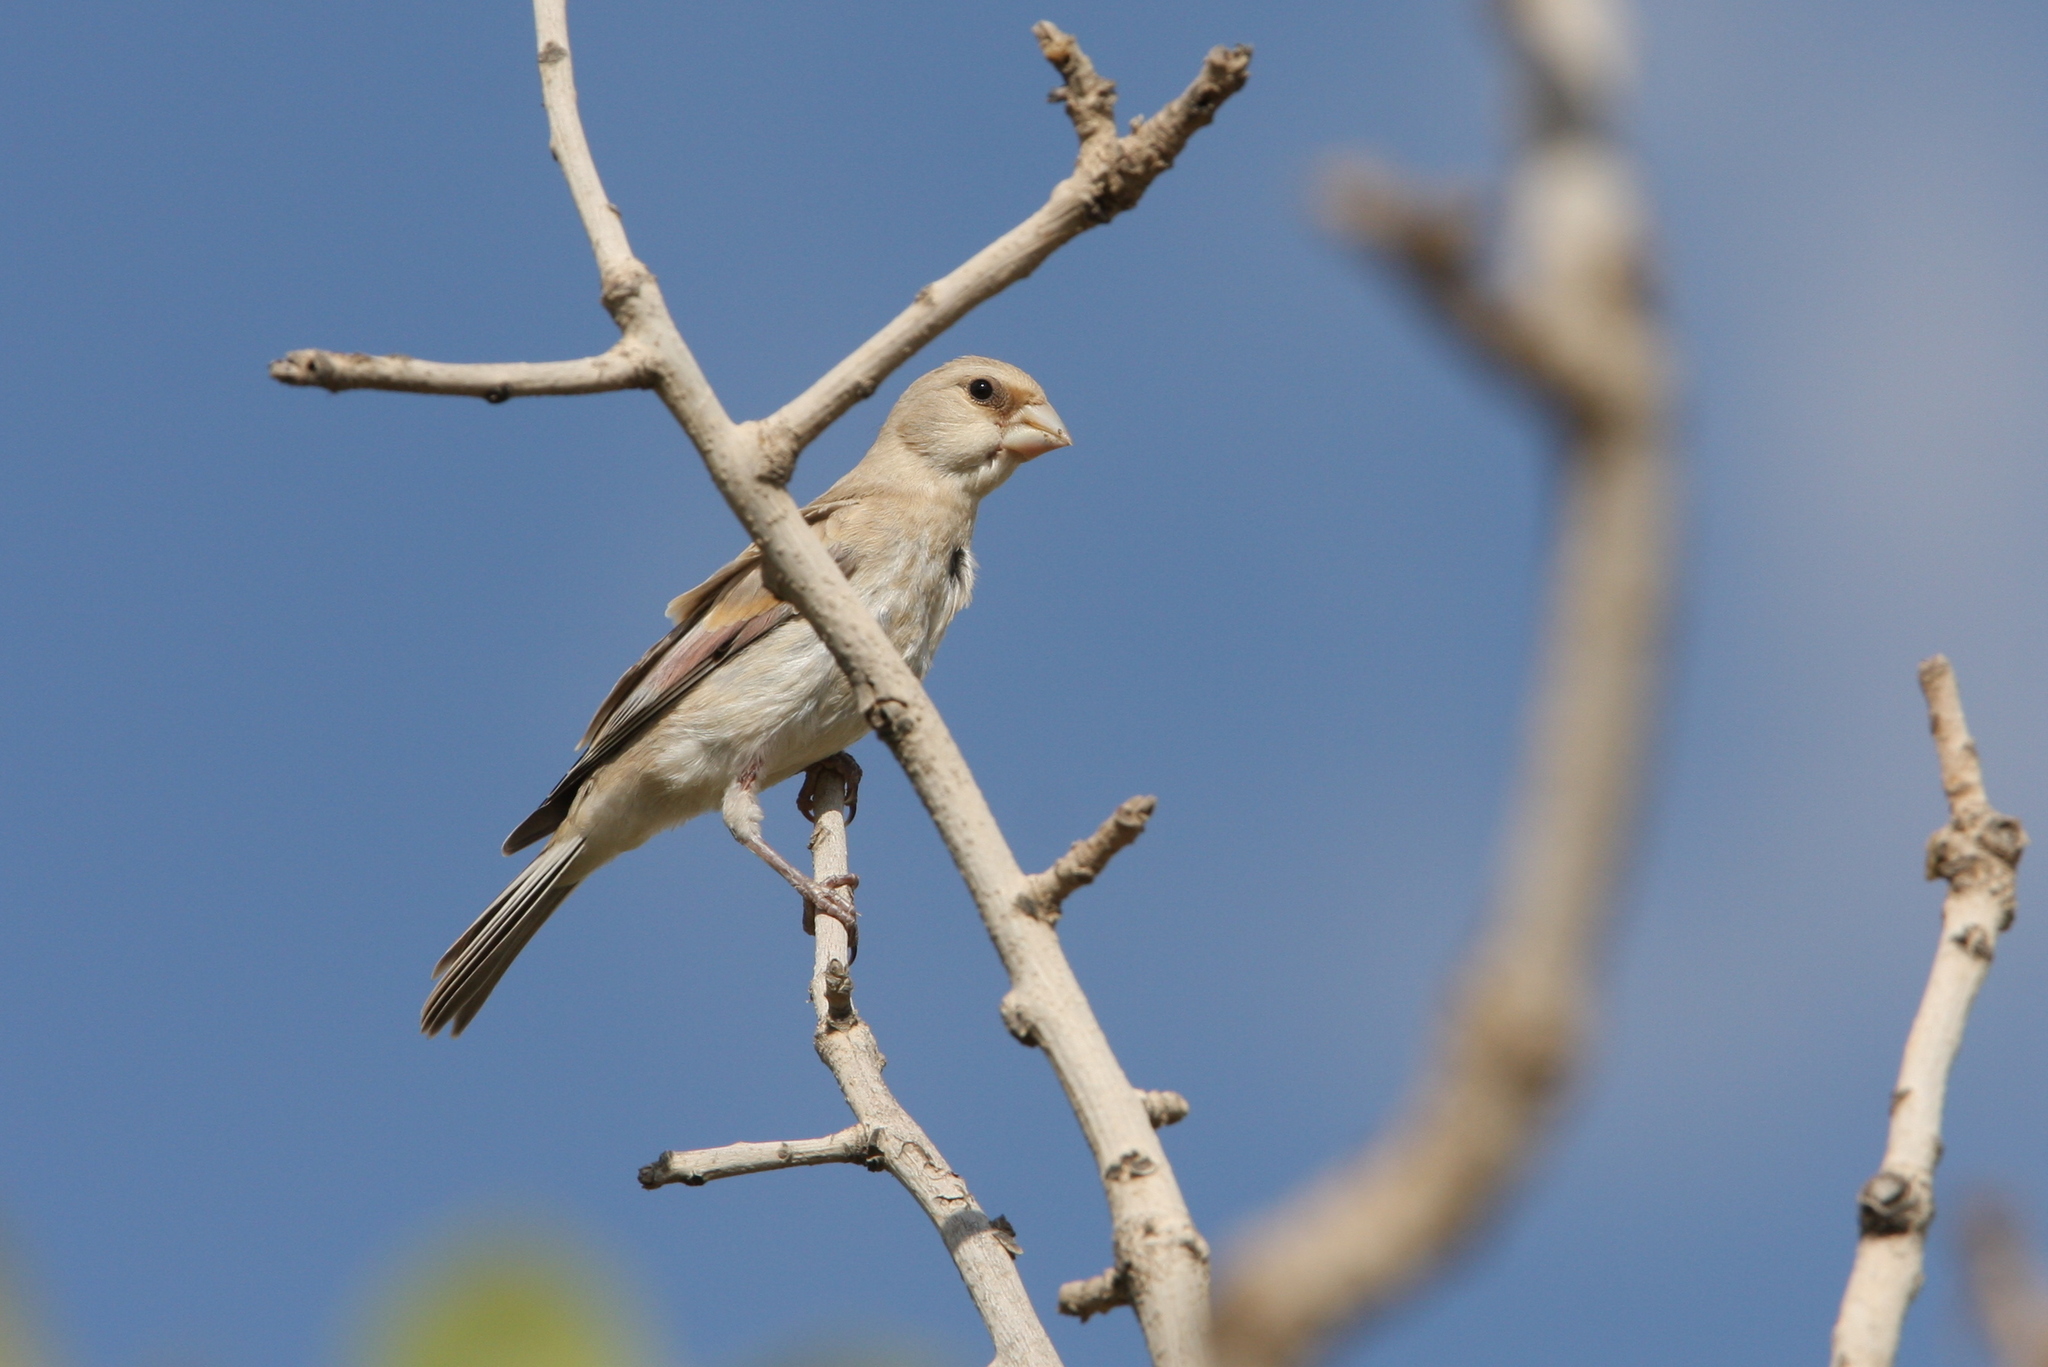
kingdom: Animalia
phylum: Chordata
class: Aves
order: Passeriformes
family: Fringillidae
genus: Rhodospiza
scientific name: Rhodospiza obsoleta
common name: Desert finch
